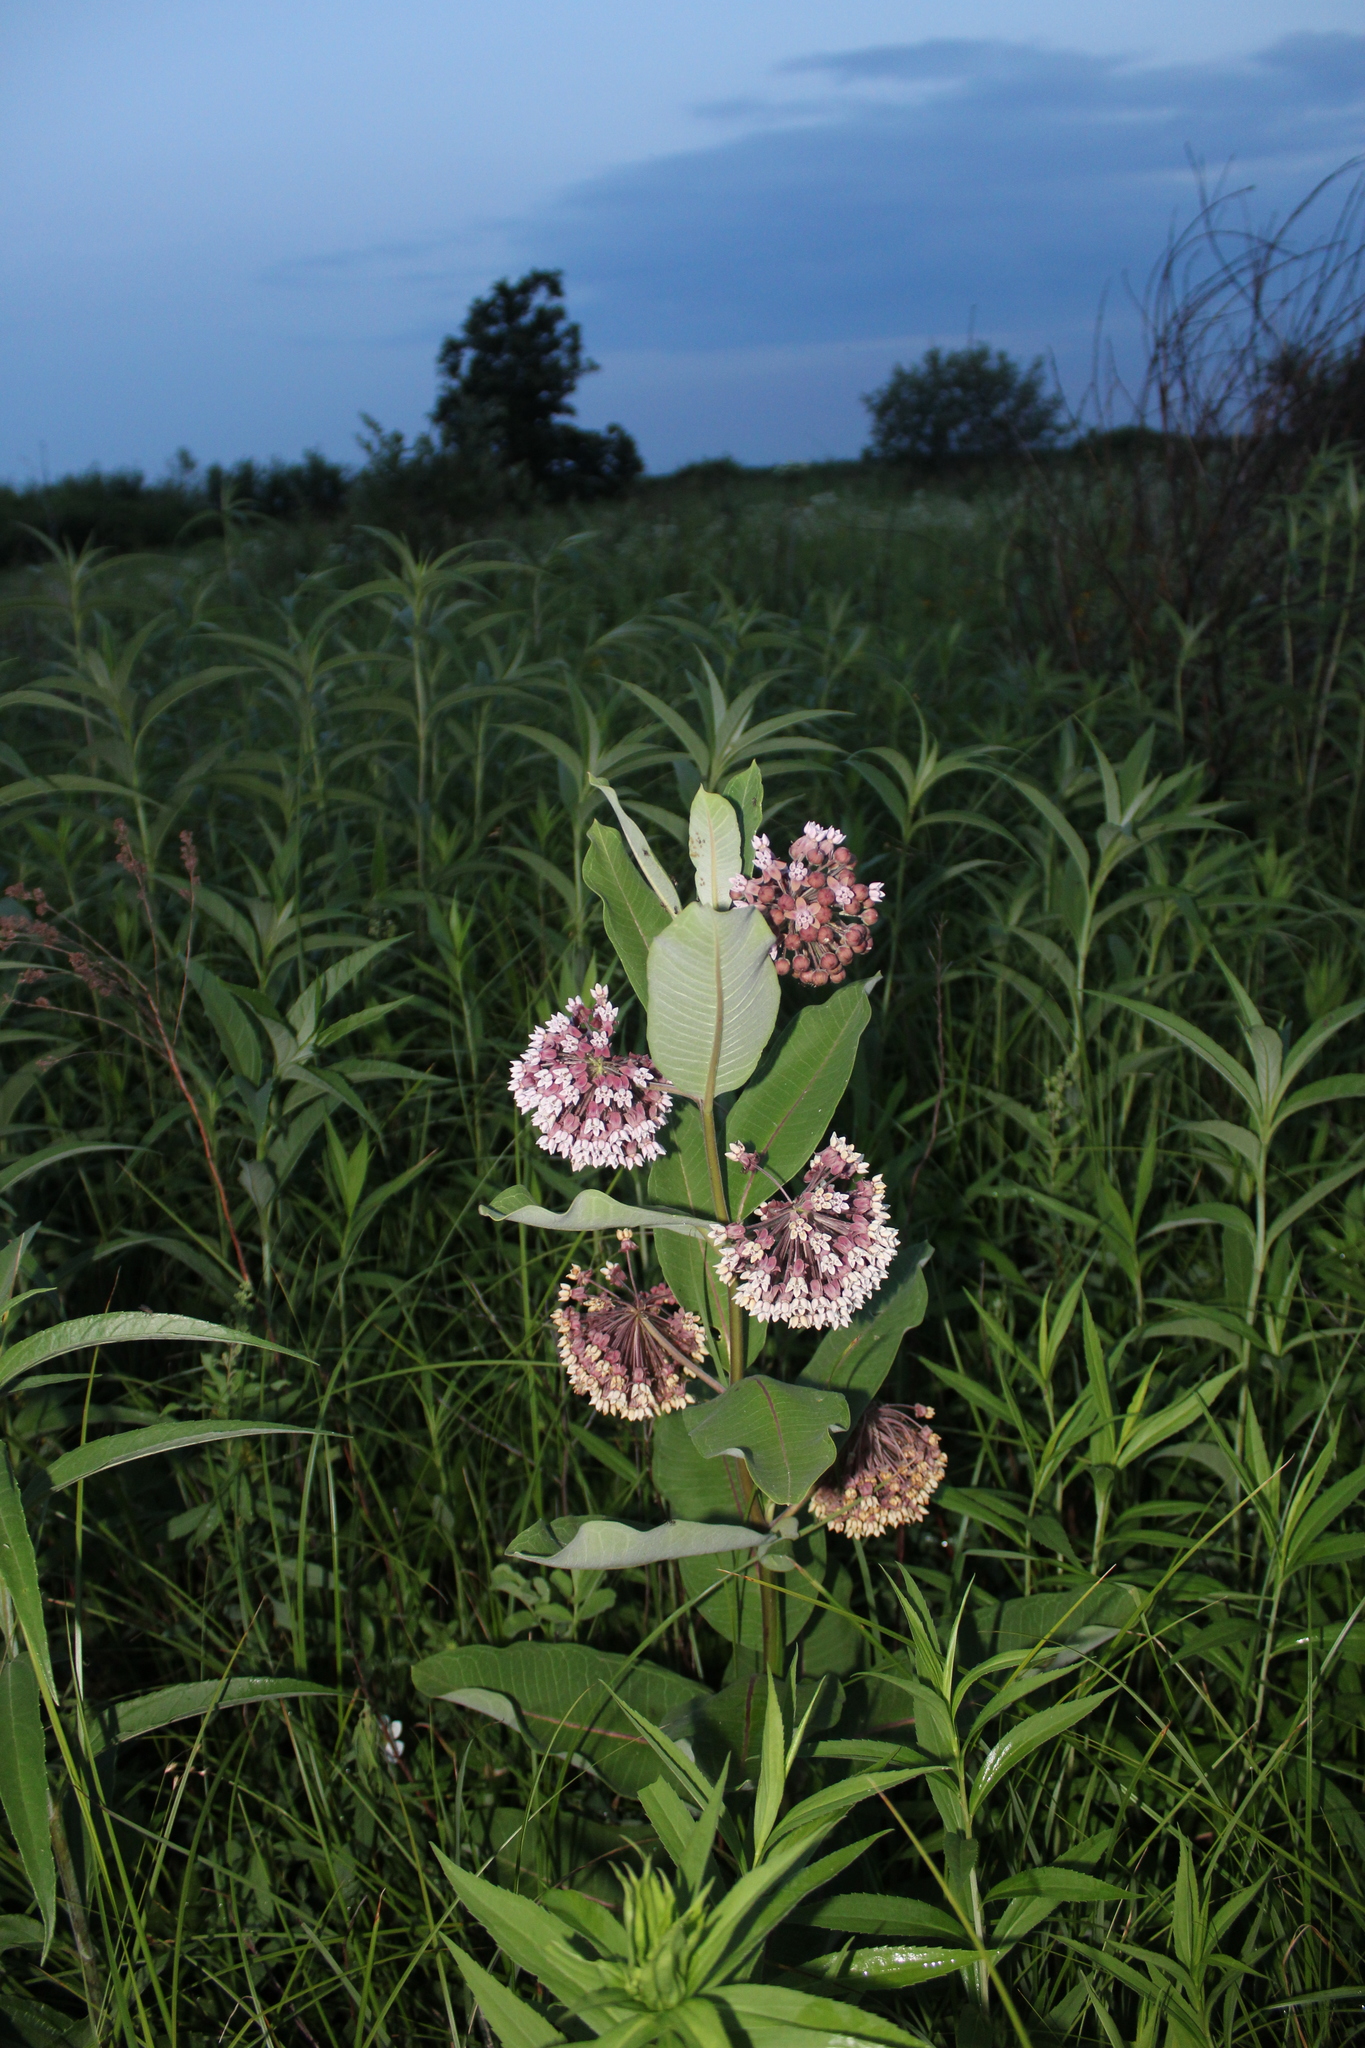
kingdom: Plantae
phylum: Tracheophyta
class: Magnoliopsida
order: Gentianales
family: Apocynaceae
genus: Asclepias
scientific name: Asclepias syriaca
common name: Common milkweed
